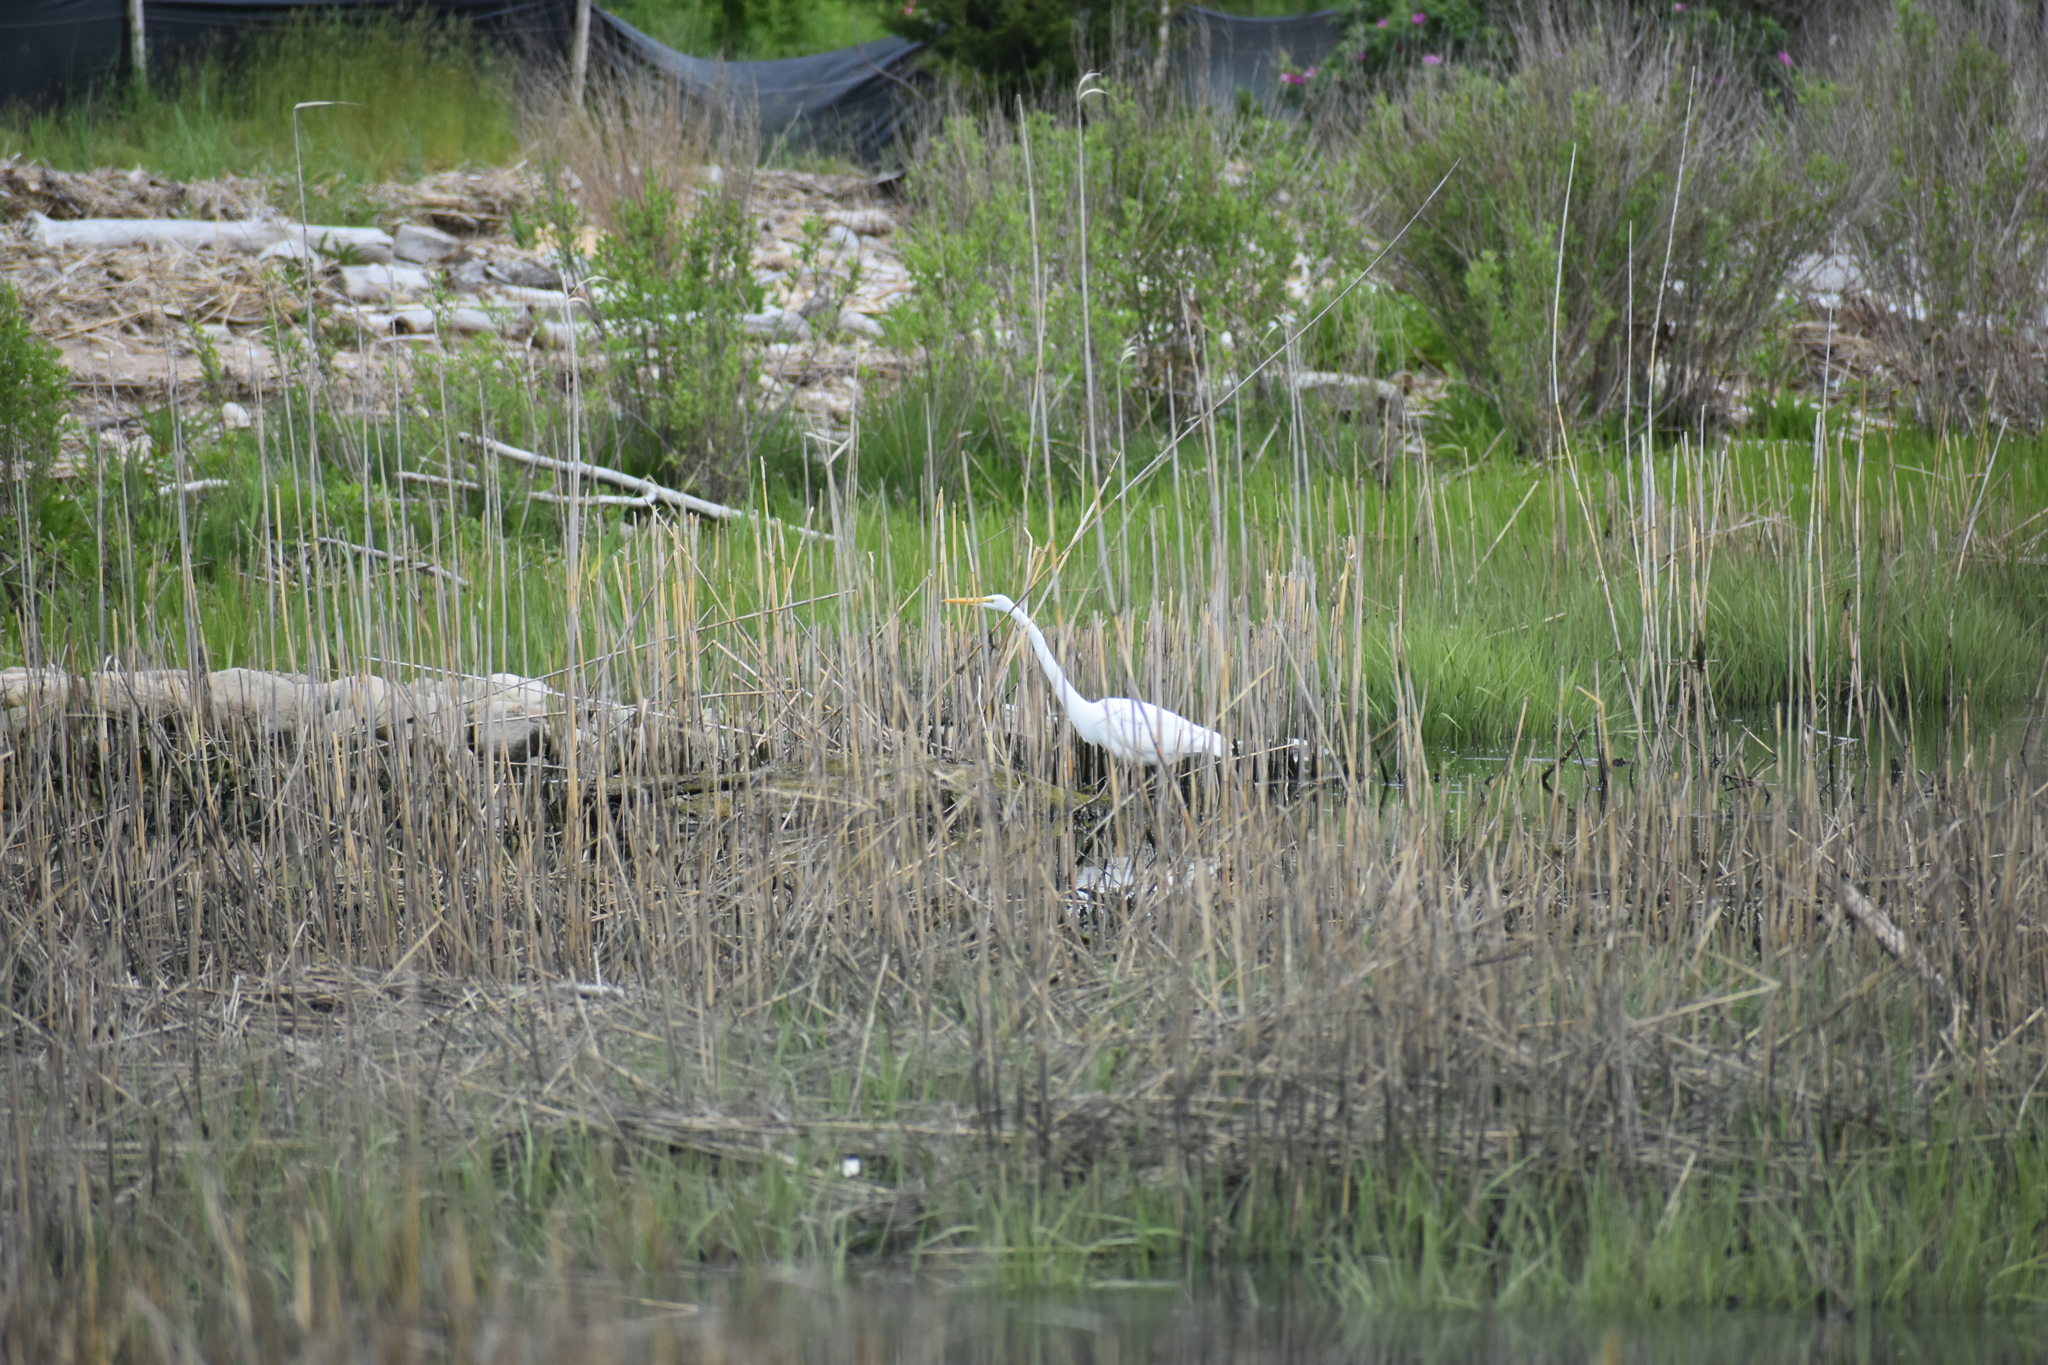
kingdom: Animalia
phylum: Chordata
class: Aves
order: Pelecaniformes
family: Ardeidae
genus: Ardea
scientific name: Ardea alba
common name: Great egret
